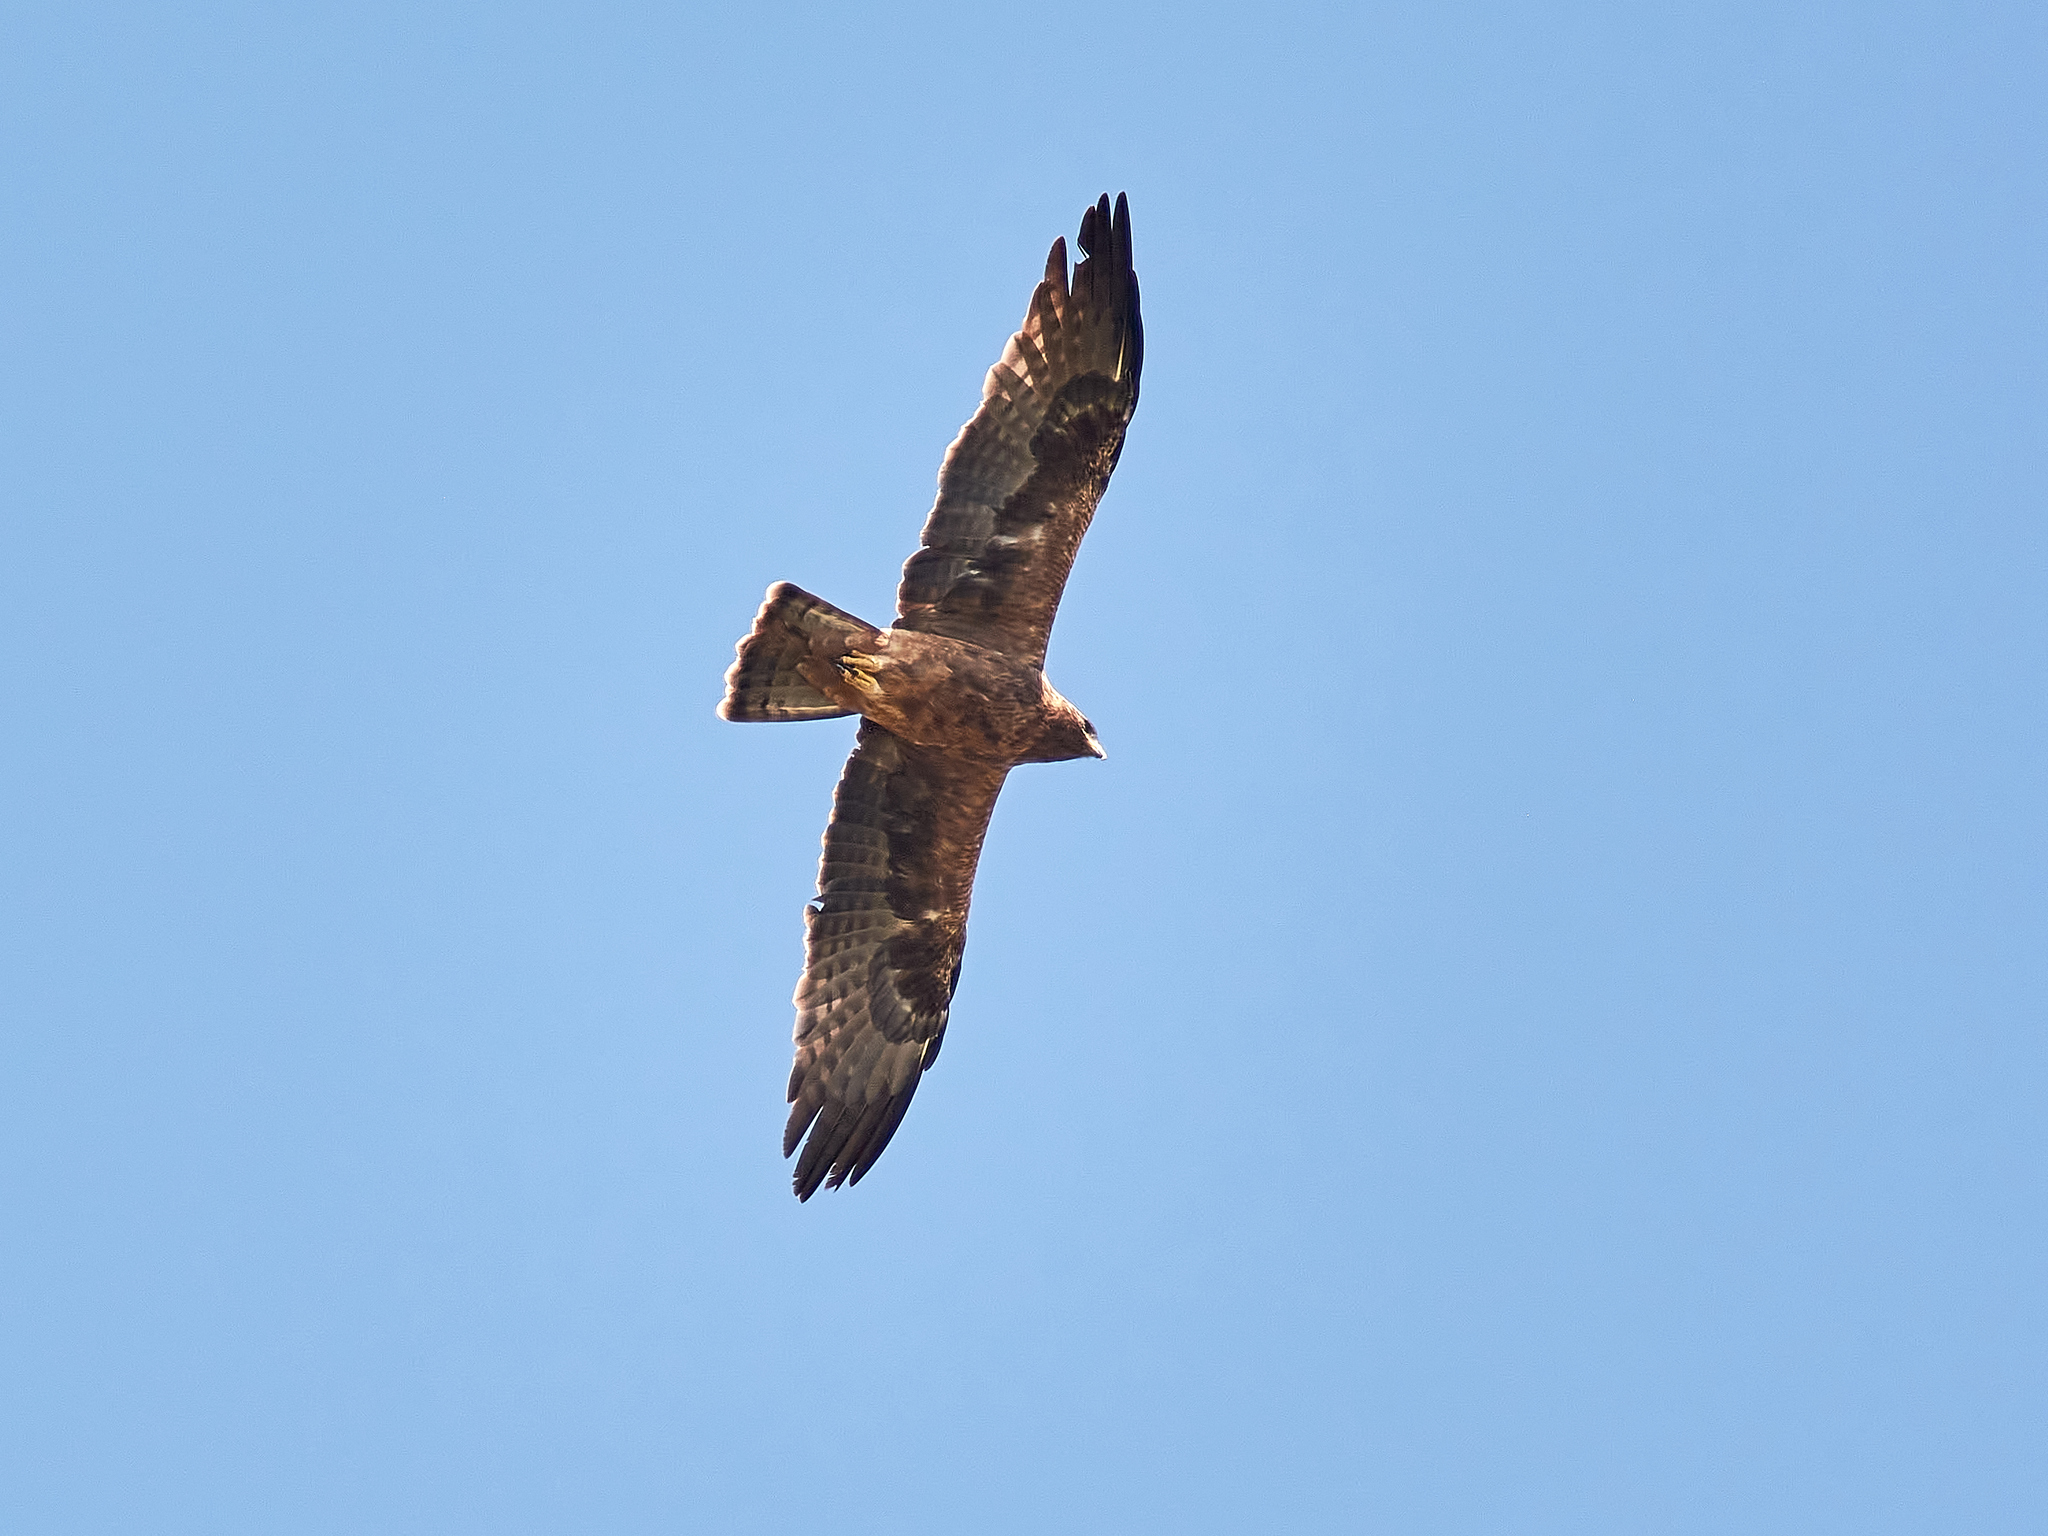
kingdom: Animalia
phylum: Chordata
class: Aves
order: Accipitriformes
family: Accipitridae
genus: Hieraaetus
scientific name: Hieraaetus pennatus
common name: Booted eagle
